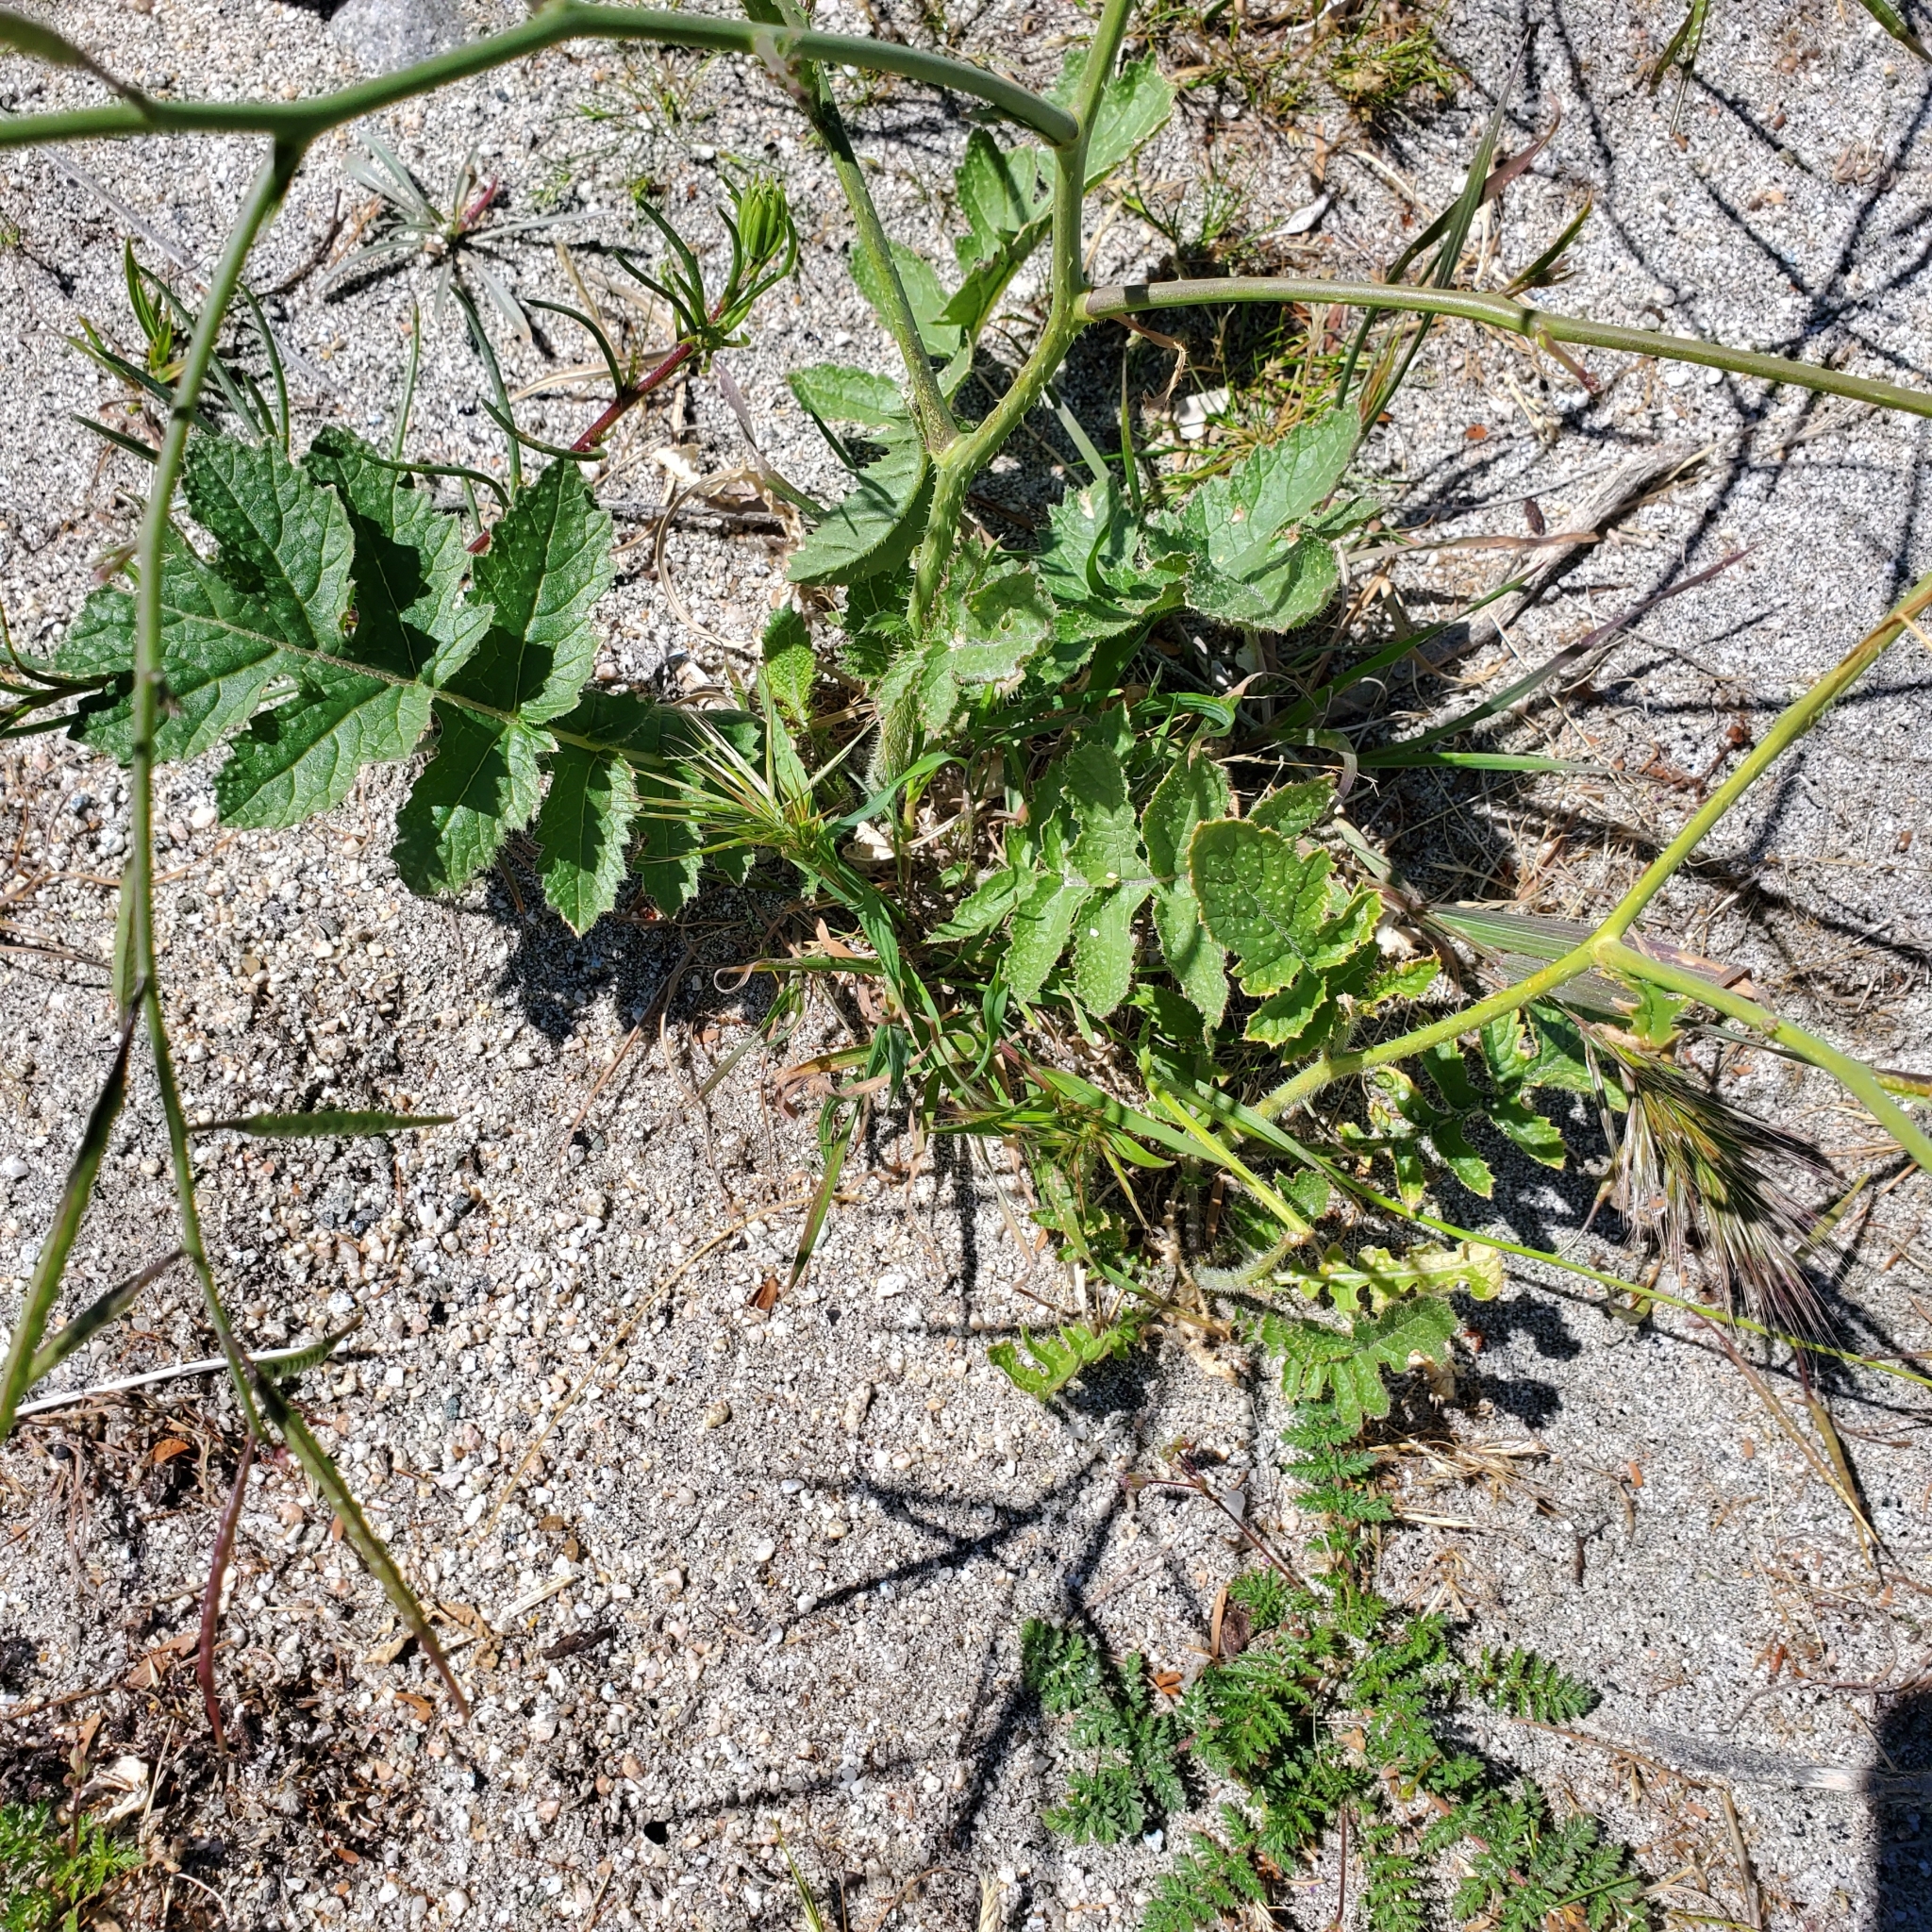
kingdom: Plantae
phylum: Tracheophyta
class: Magnoliopsida
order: Brassicales
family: Brassicaceae
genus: Brassica
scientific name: Brassica tournefortii
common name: Pale cabbage
